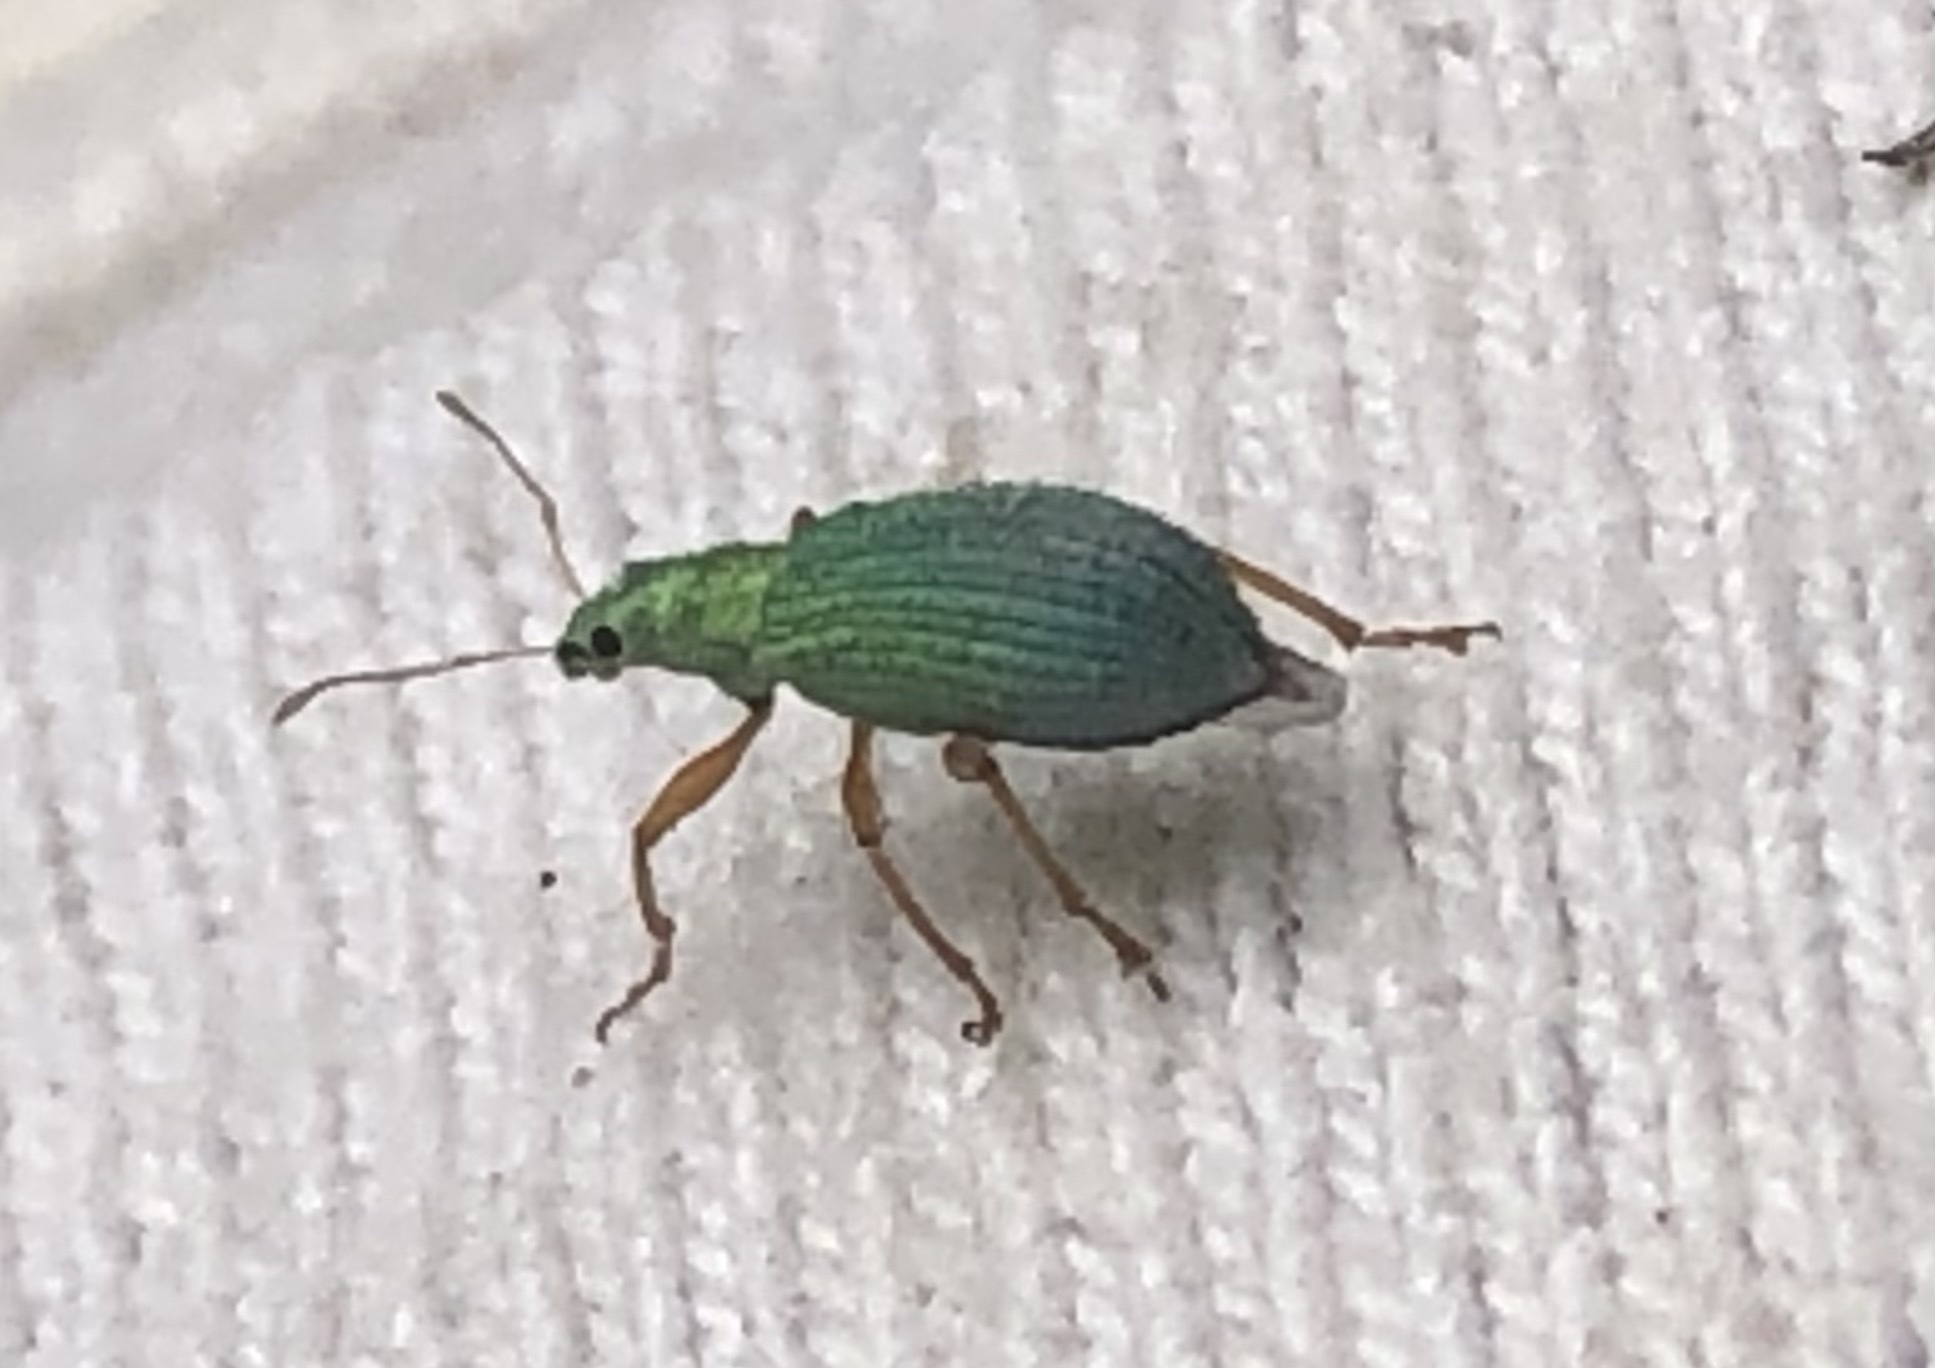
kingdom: Animalia
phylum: Arthropoda
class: Insecta
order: Coleoptera
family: Curculionidae
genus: Polydrusus
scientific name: Polydrusus impressifrons
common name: Weevil
